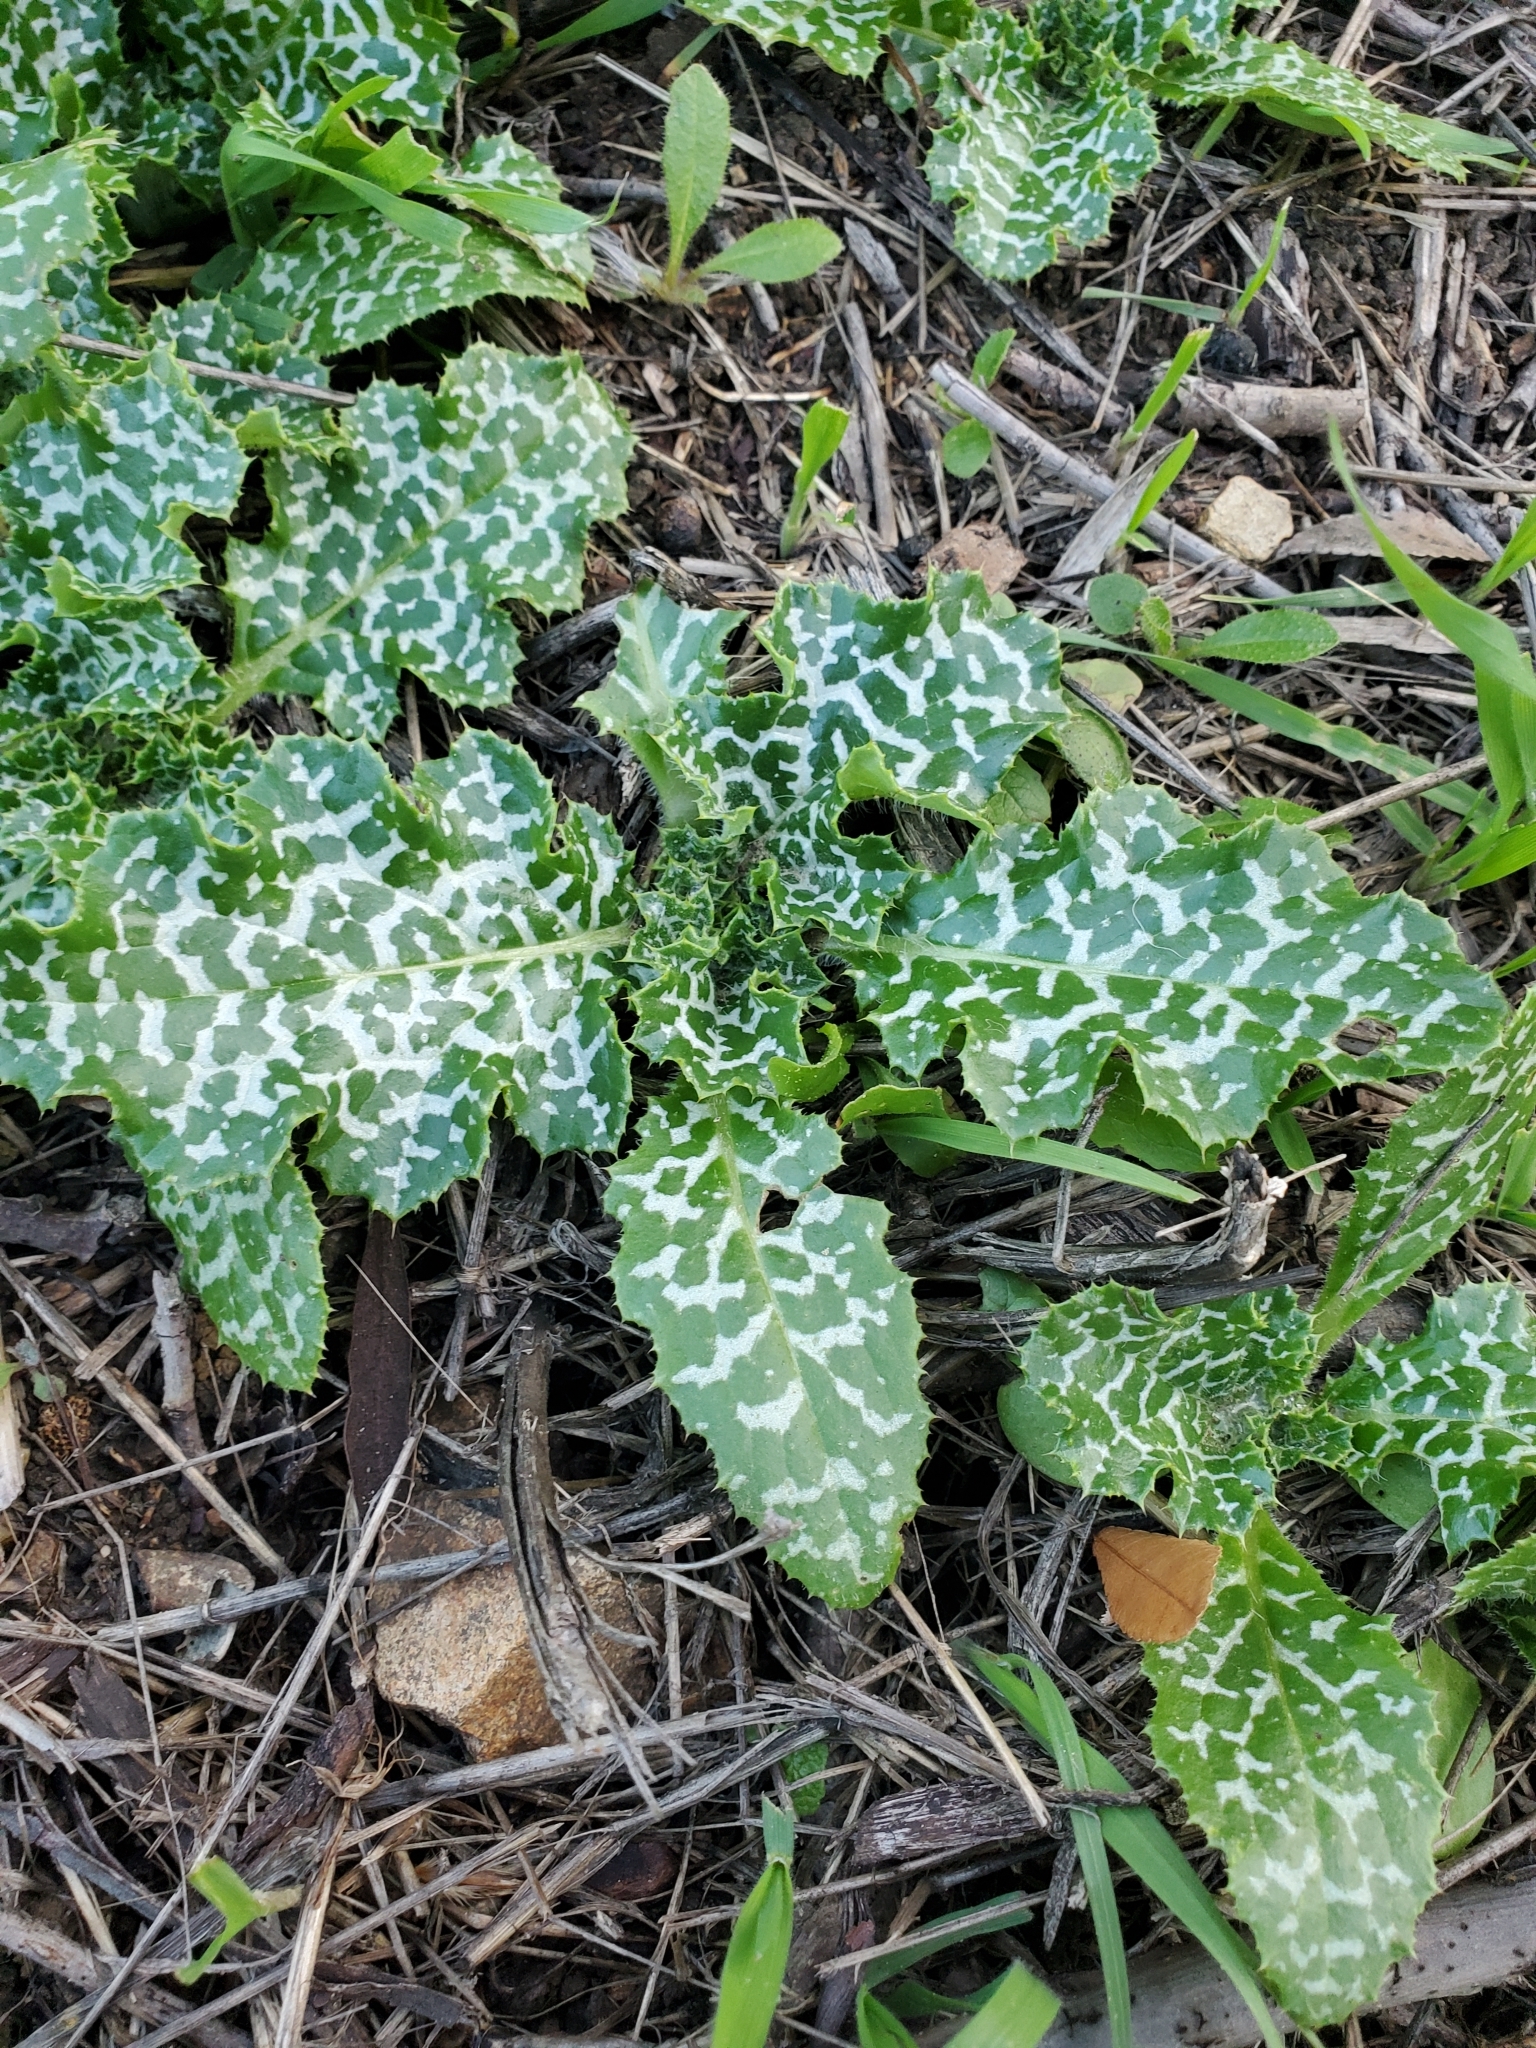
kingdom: Plantae
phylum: Tracheophyta
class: Magnoliopsida
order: Asterales
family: Asteraceae
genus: Silybum
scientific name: Silybum marianum
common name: Milk thistle
